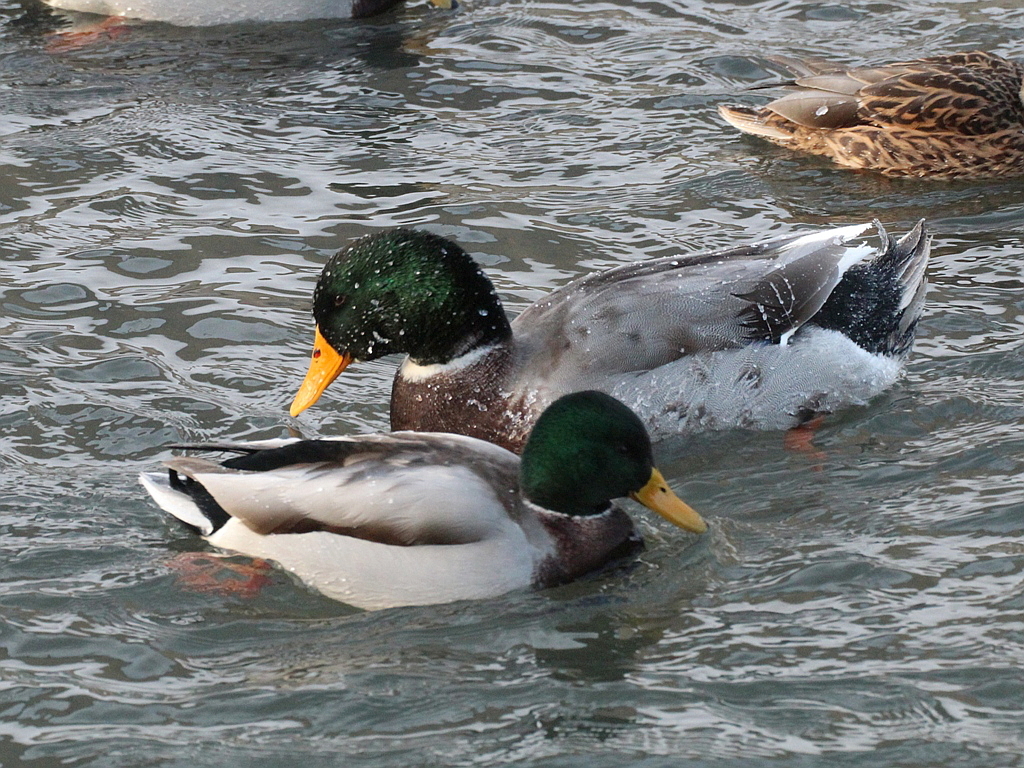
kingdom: Animalia
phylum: Chordata
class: Aves
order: Anseriformes
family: Anatidae
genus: Anas
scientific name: Anas platyrhynchos
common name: Mallard
